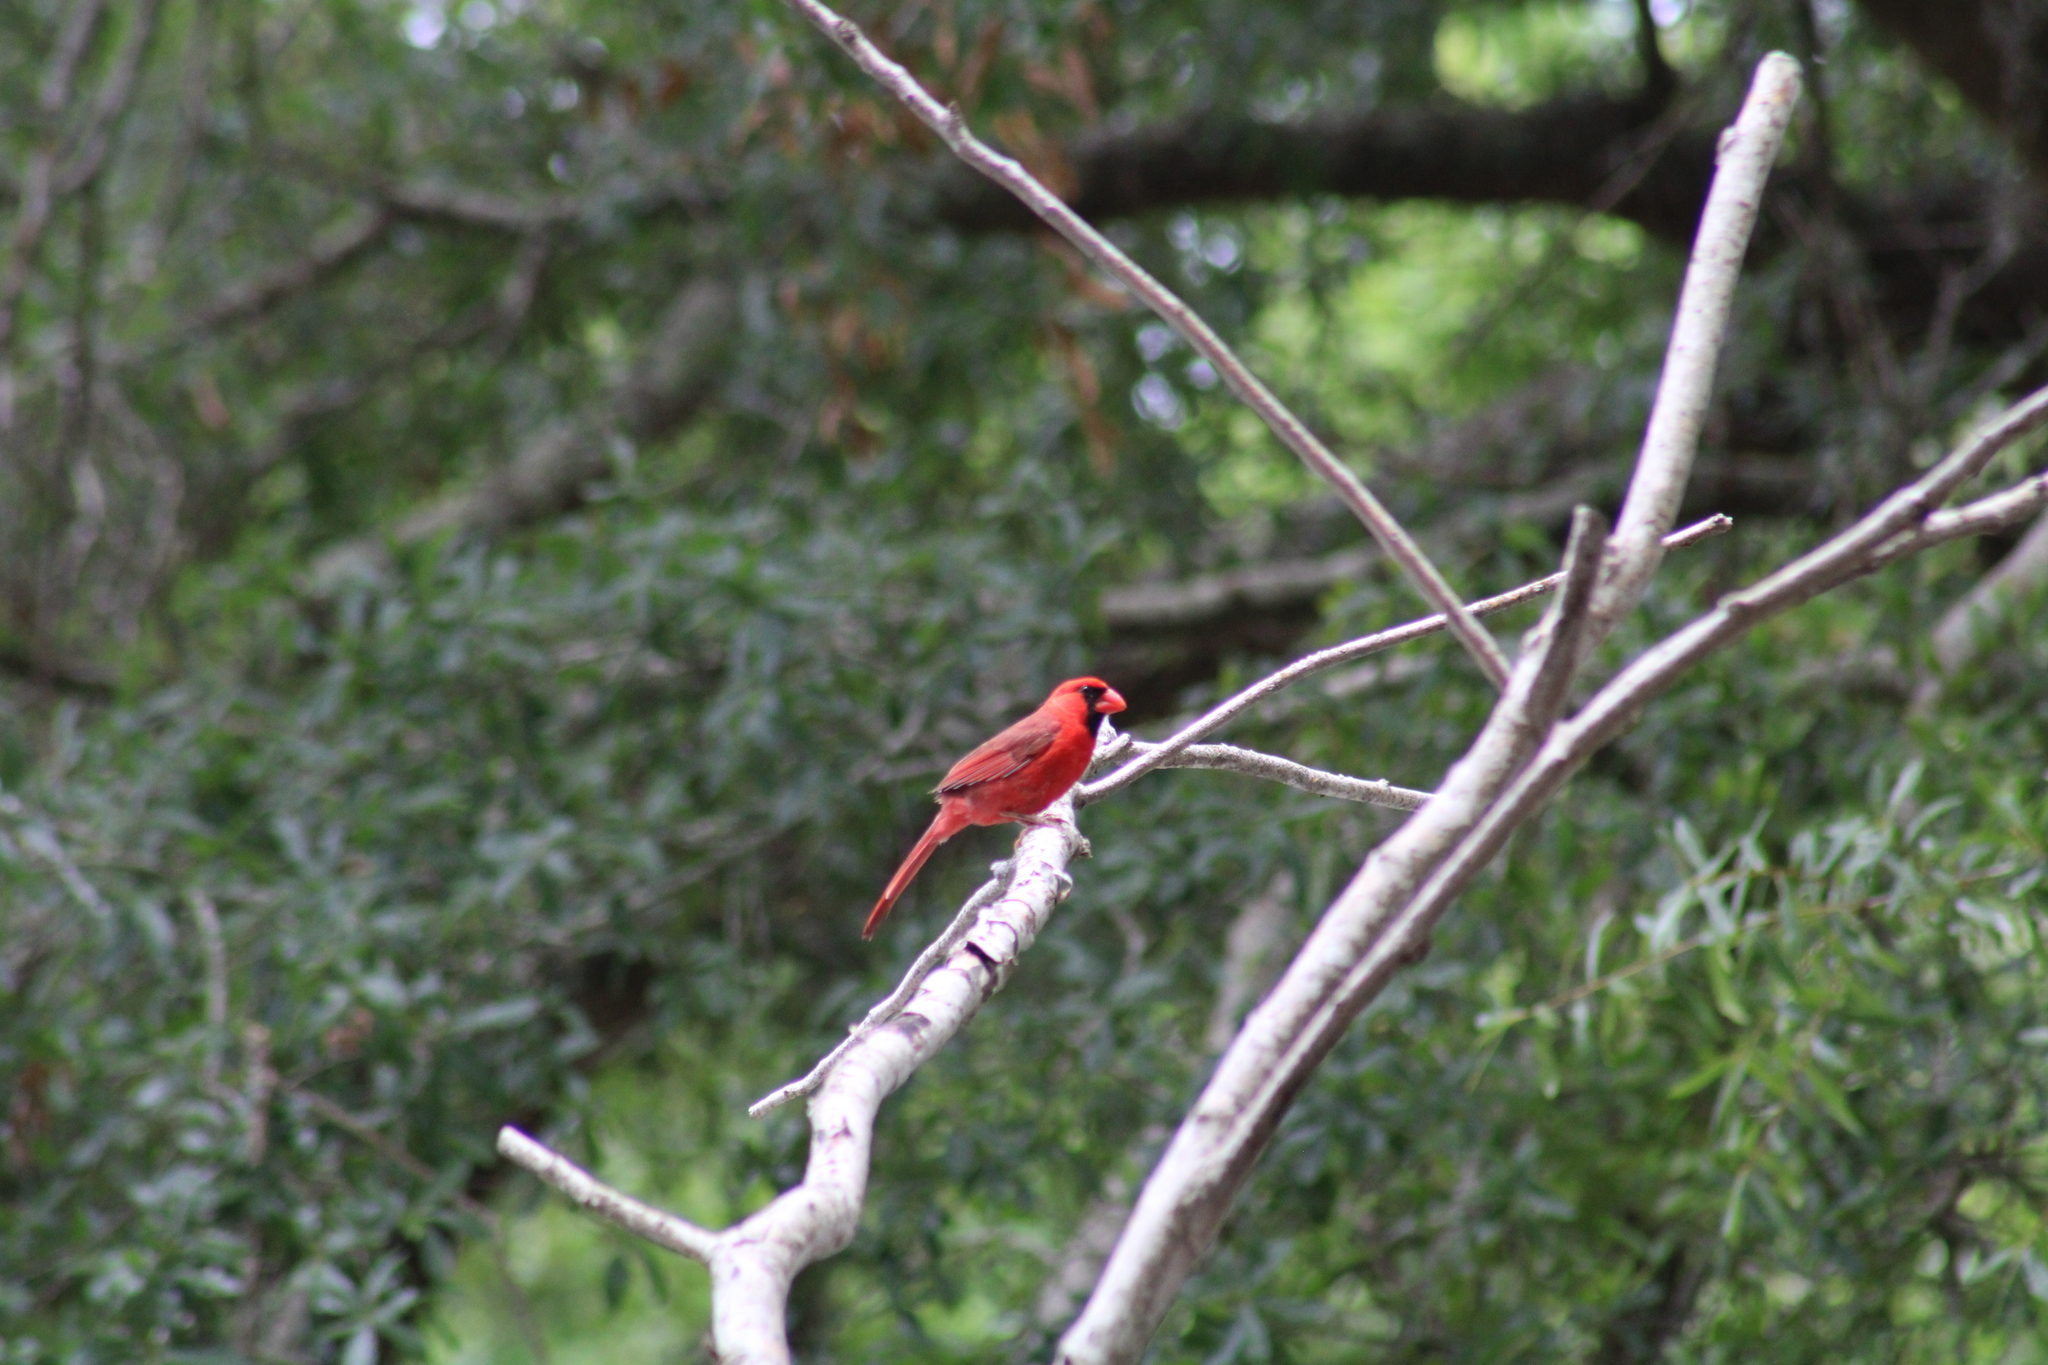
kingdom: Animalia
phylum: Chordata
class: Aves
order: Passeriformes
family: Cardinalidae
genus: Cardinalis
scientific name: Cardinalis cardinalis
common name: Northern cardinal
